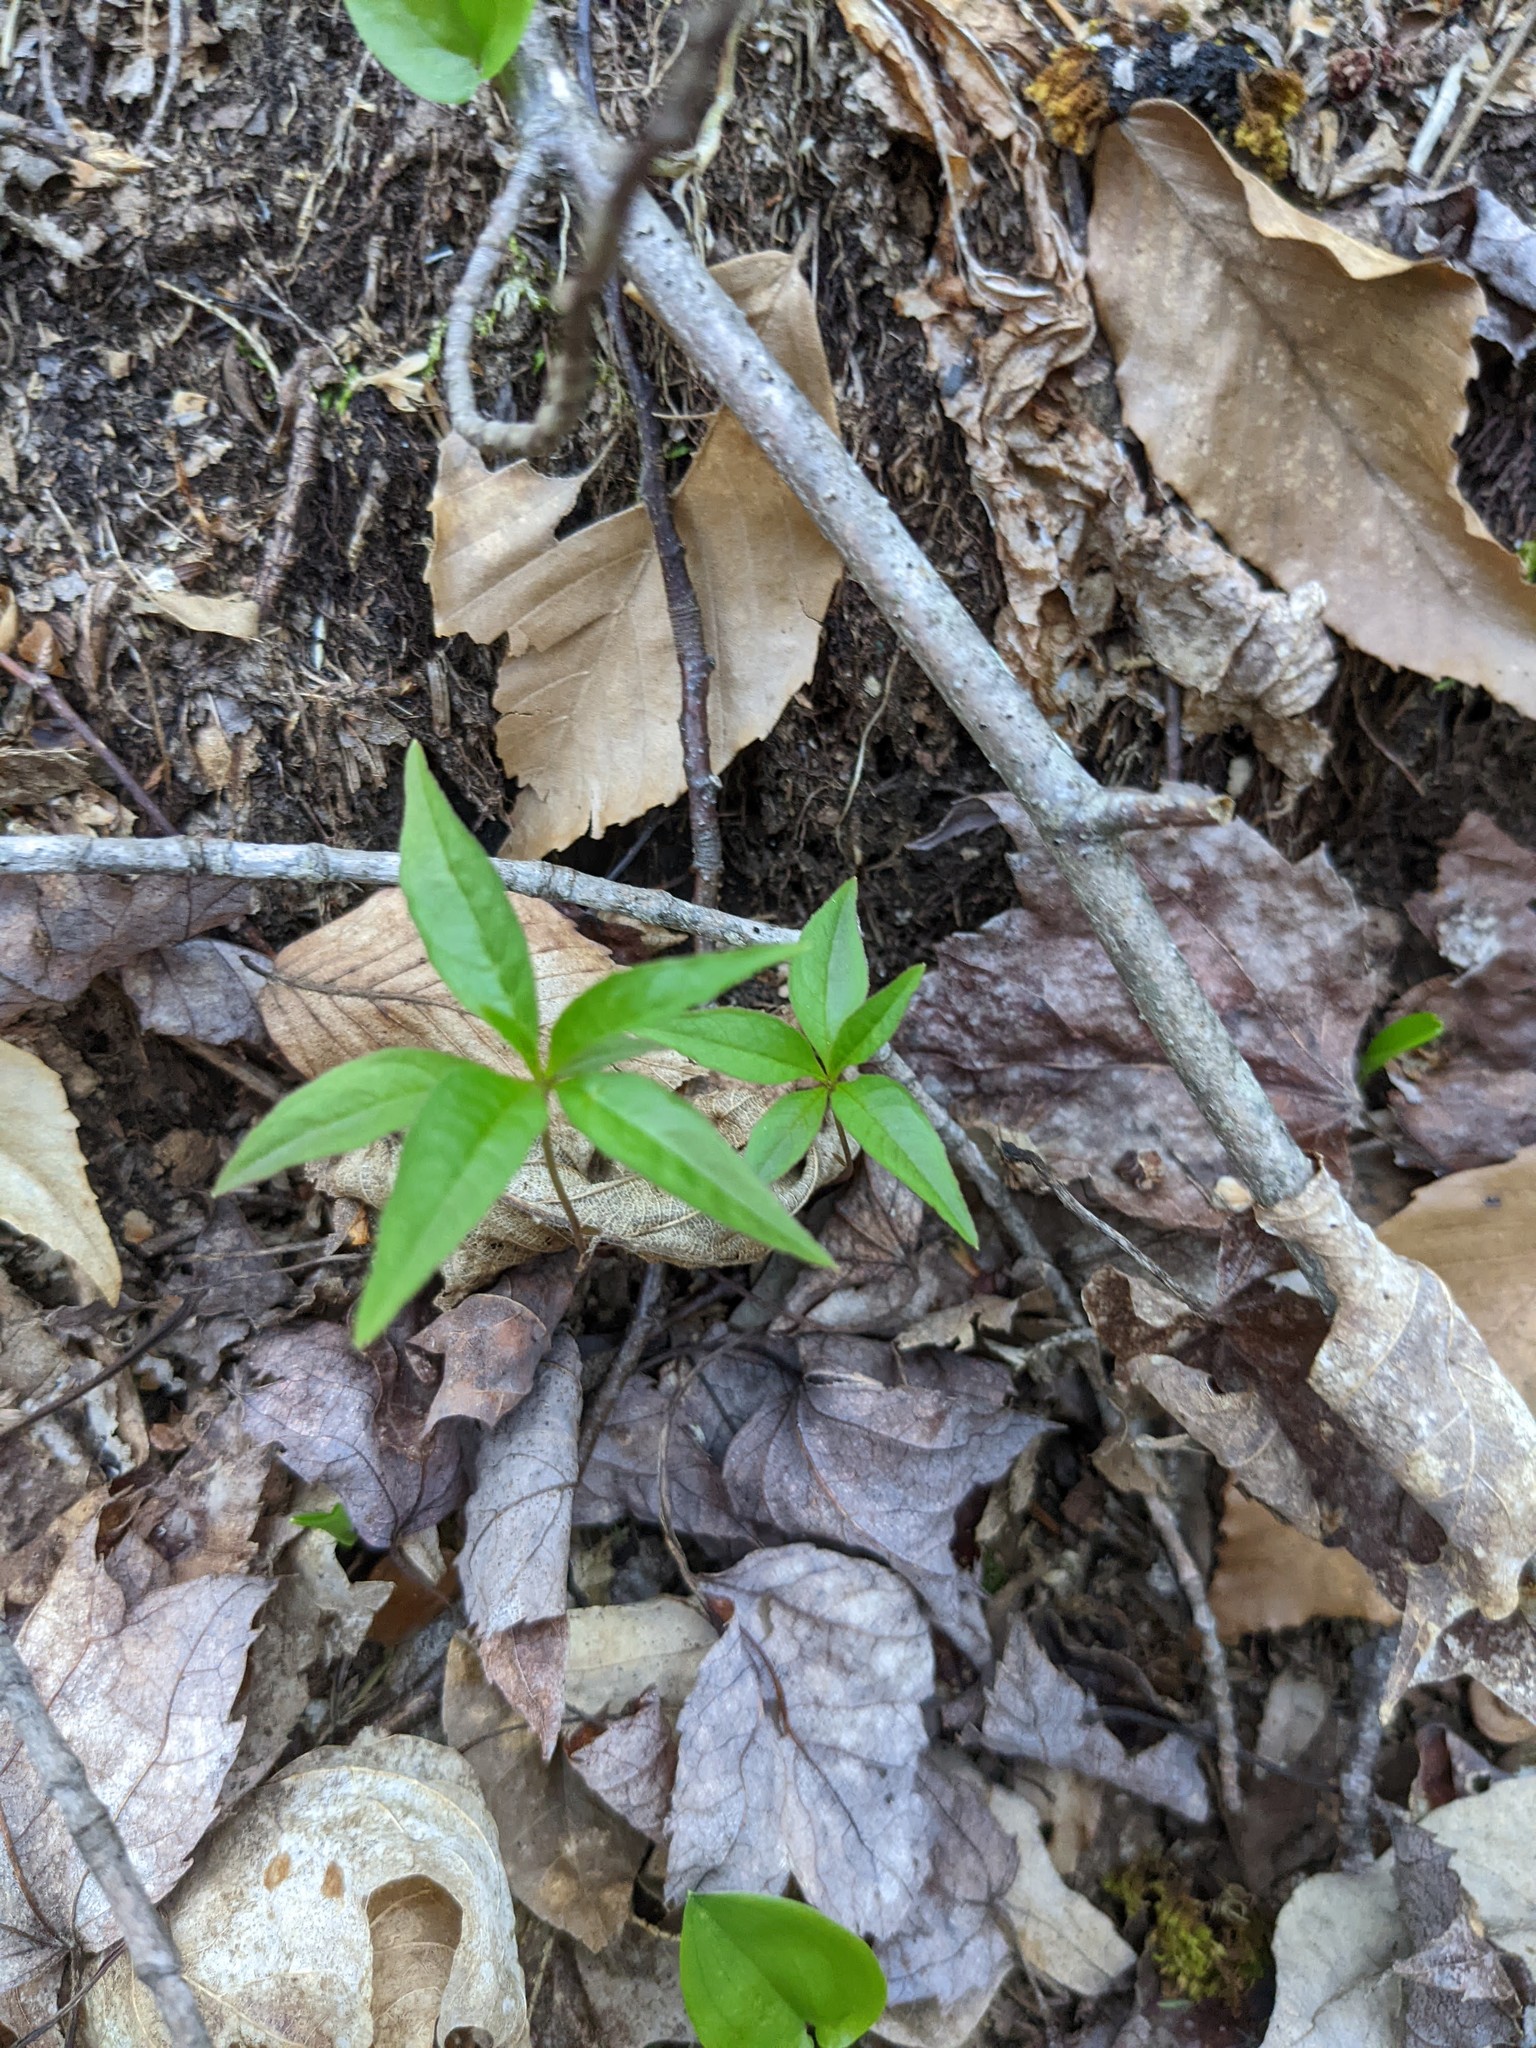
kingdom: Plantae
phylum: Tracheophyta
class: Magnoliopsida
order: Ericales
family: Primulaceae
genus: Lysimachia
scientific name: Lysimachia borealis
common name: American starflower
